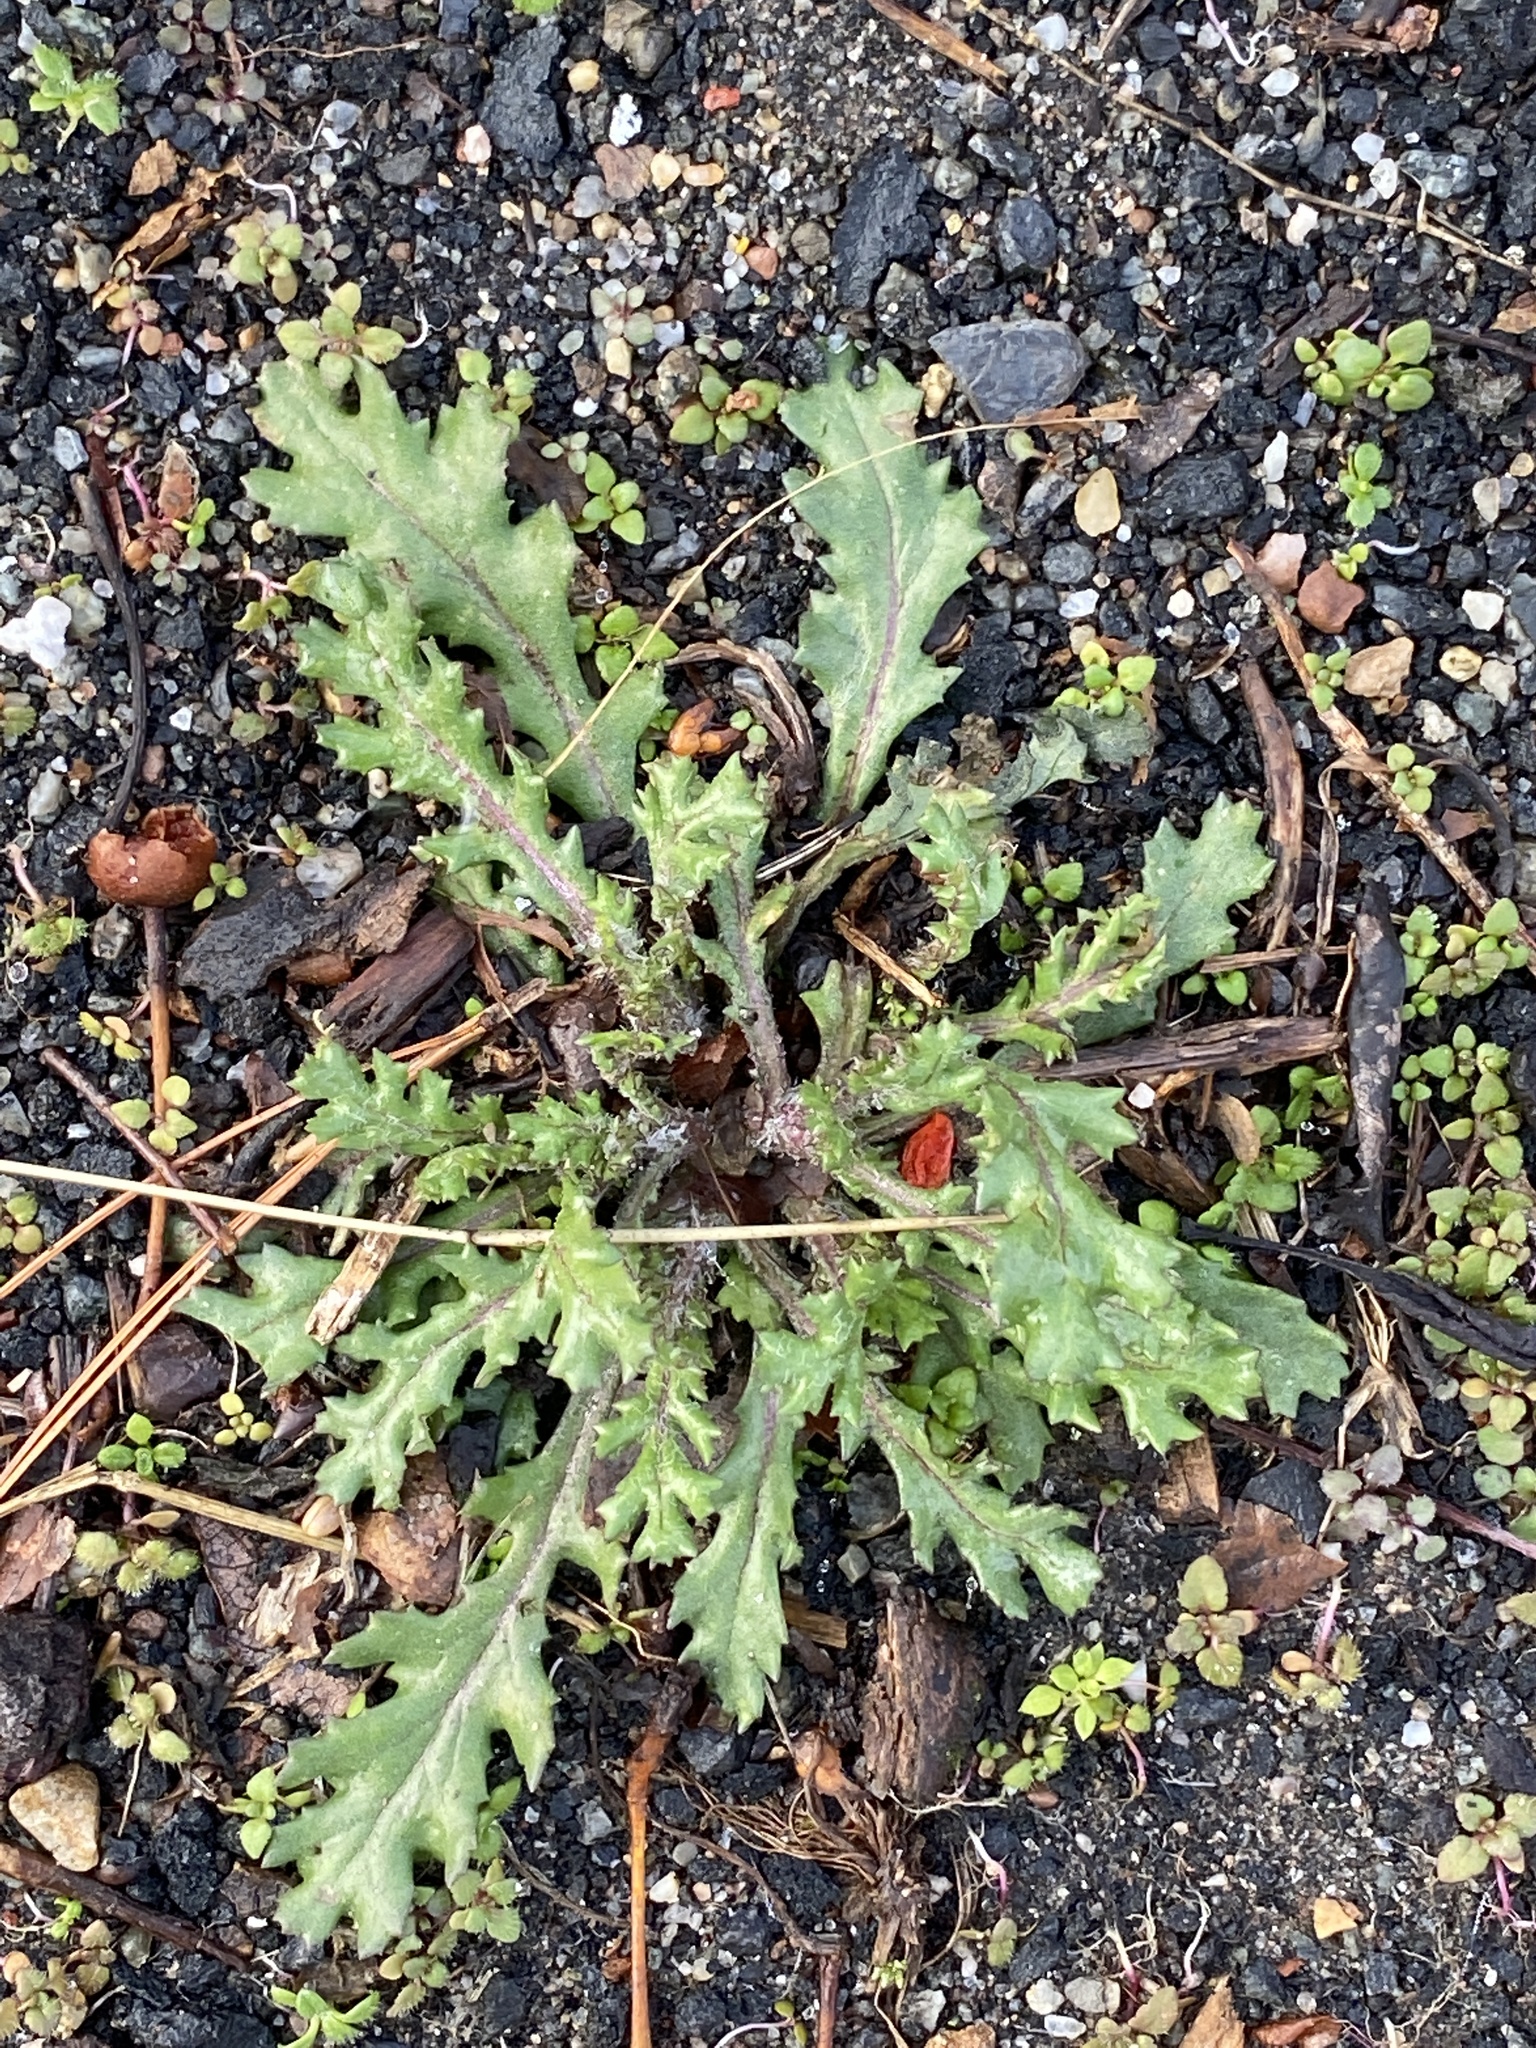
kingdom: Plantae
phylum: Tracheophyta
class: Magnoliopsida
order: Asterales
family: Asteraceae
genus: Senecio
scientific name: Senecio vulgaris
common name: Old-man-in-the-spring
